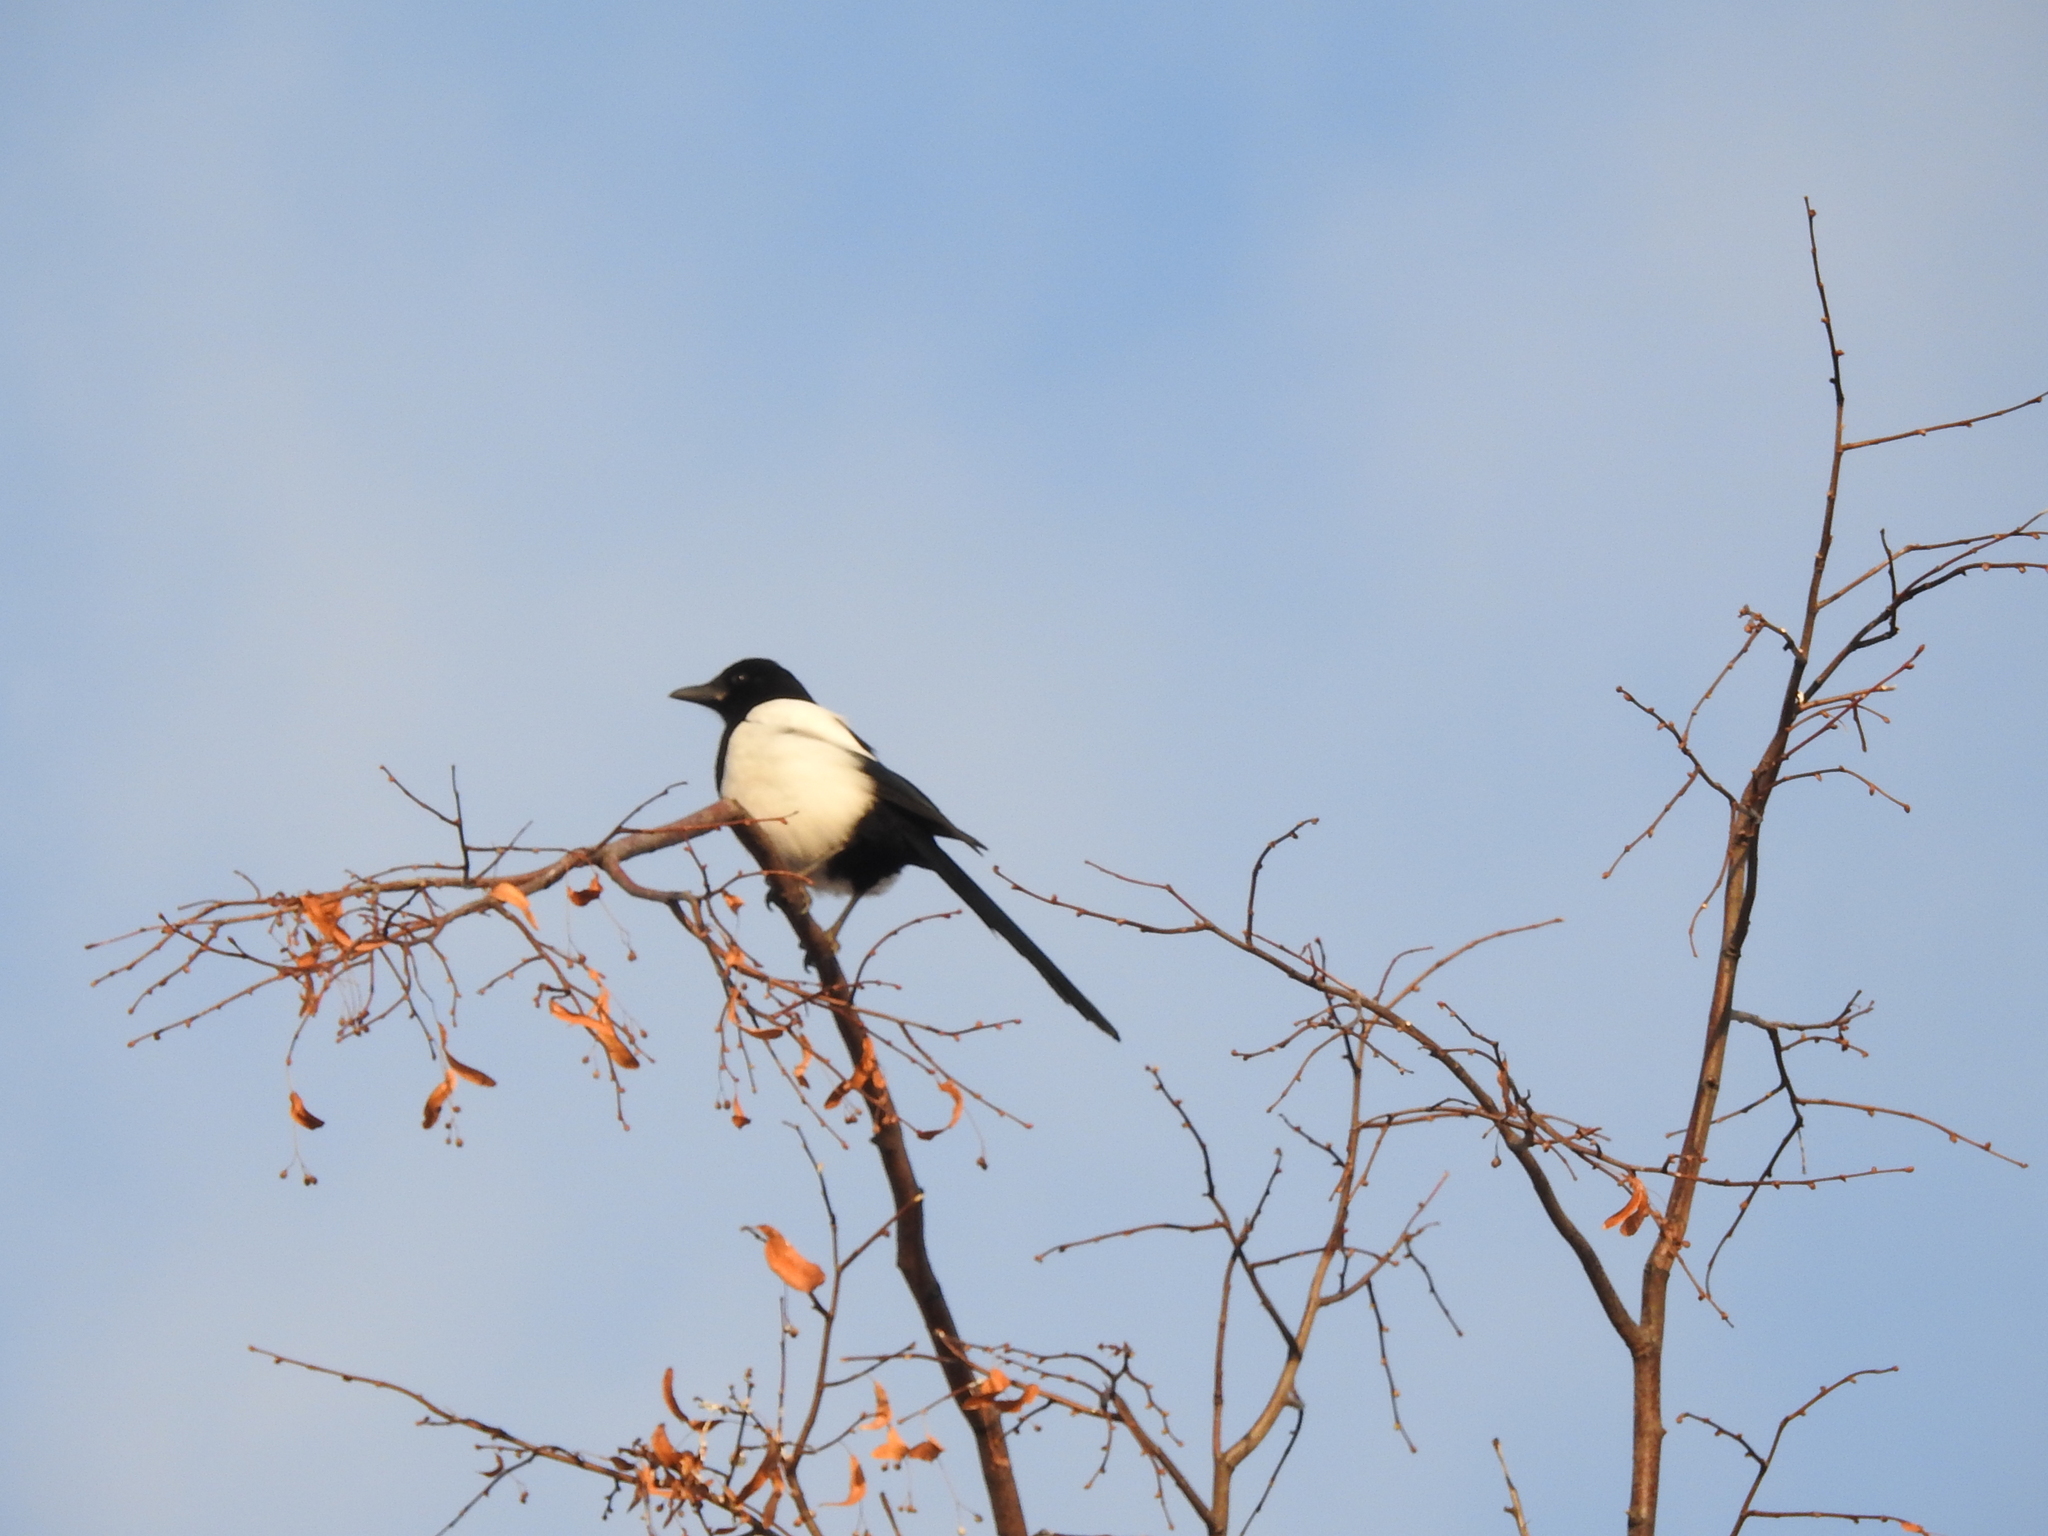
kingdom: Animalia
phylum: Chordata
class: Aves
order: Passeriformes
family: Corvidae
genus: Pica
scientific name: Pica pica
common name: Eurasian magpie
